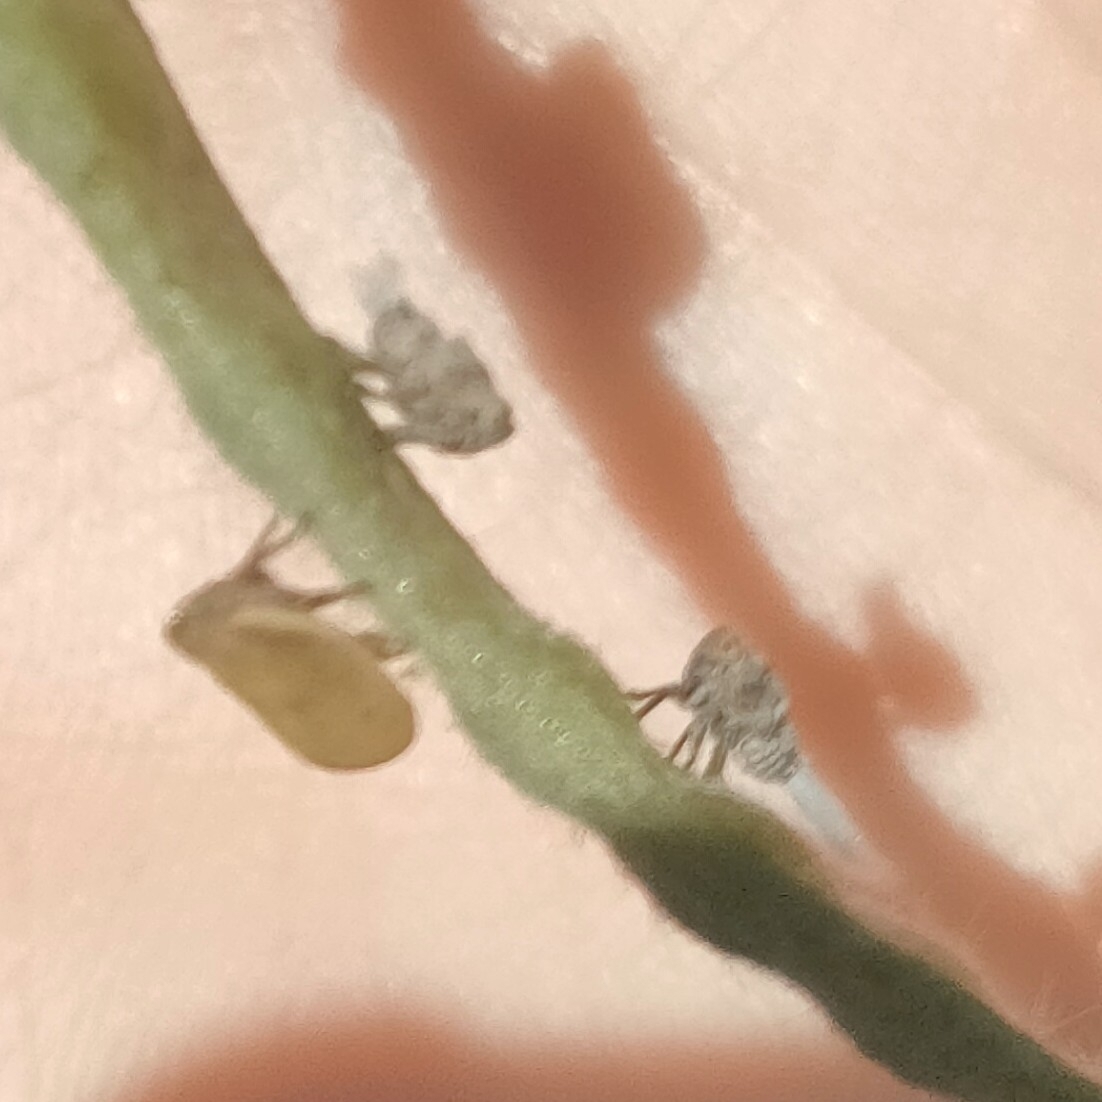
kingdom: Animalia
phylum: Arthropoda
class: Insecta
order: Hemiptera
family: Issidae
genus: Agalmatium
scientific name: Agalmatium bilobum
